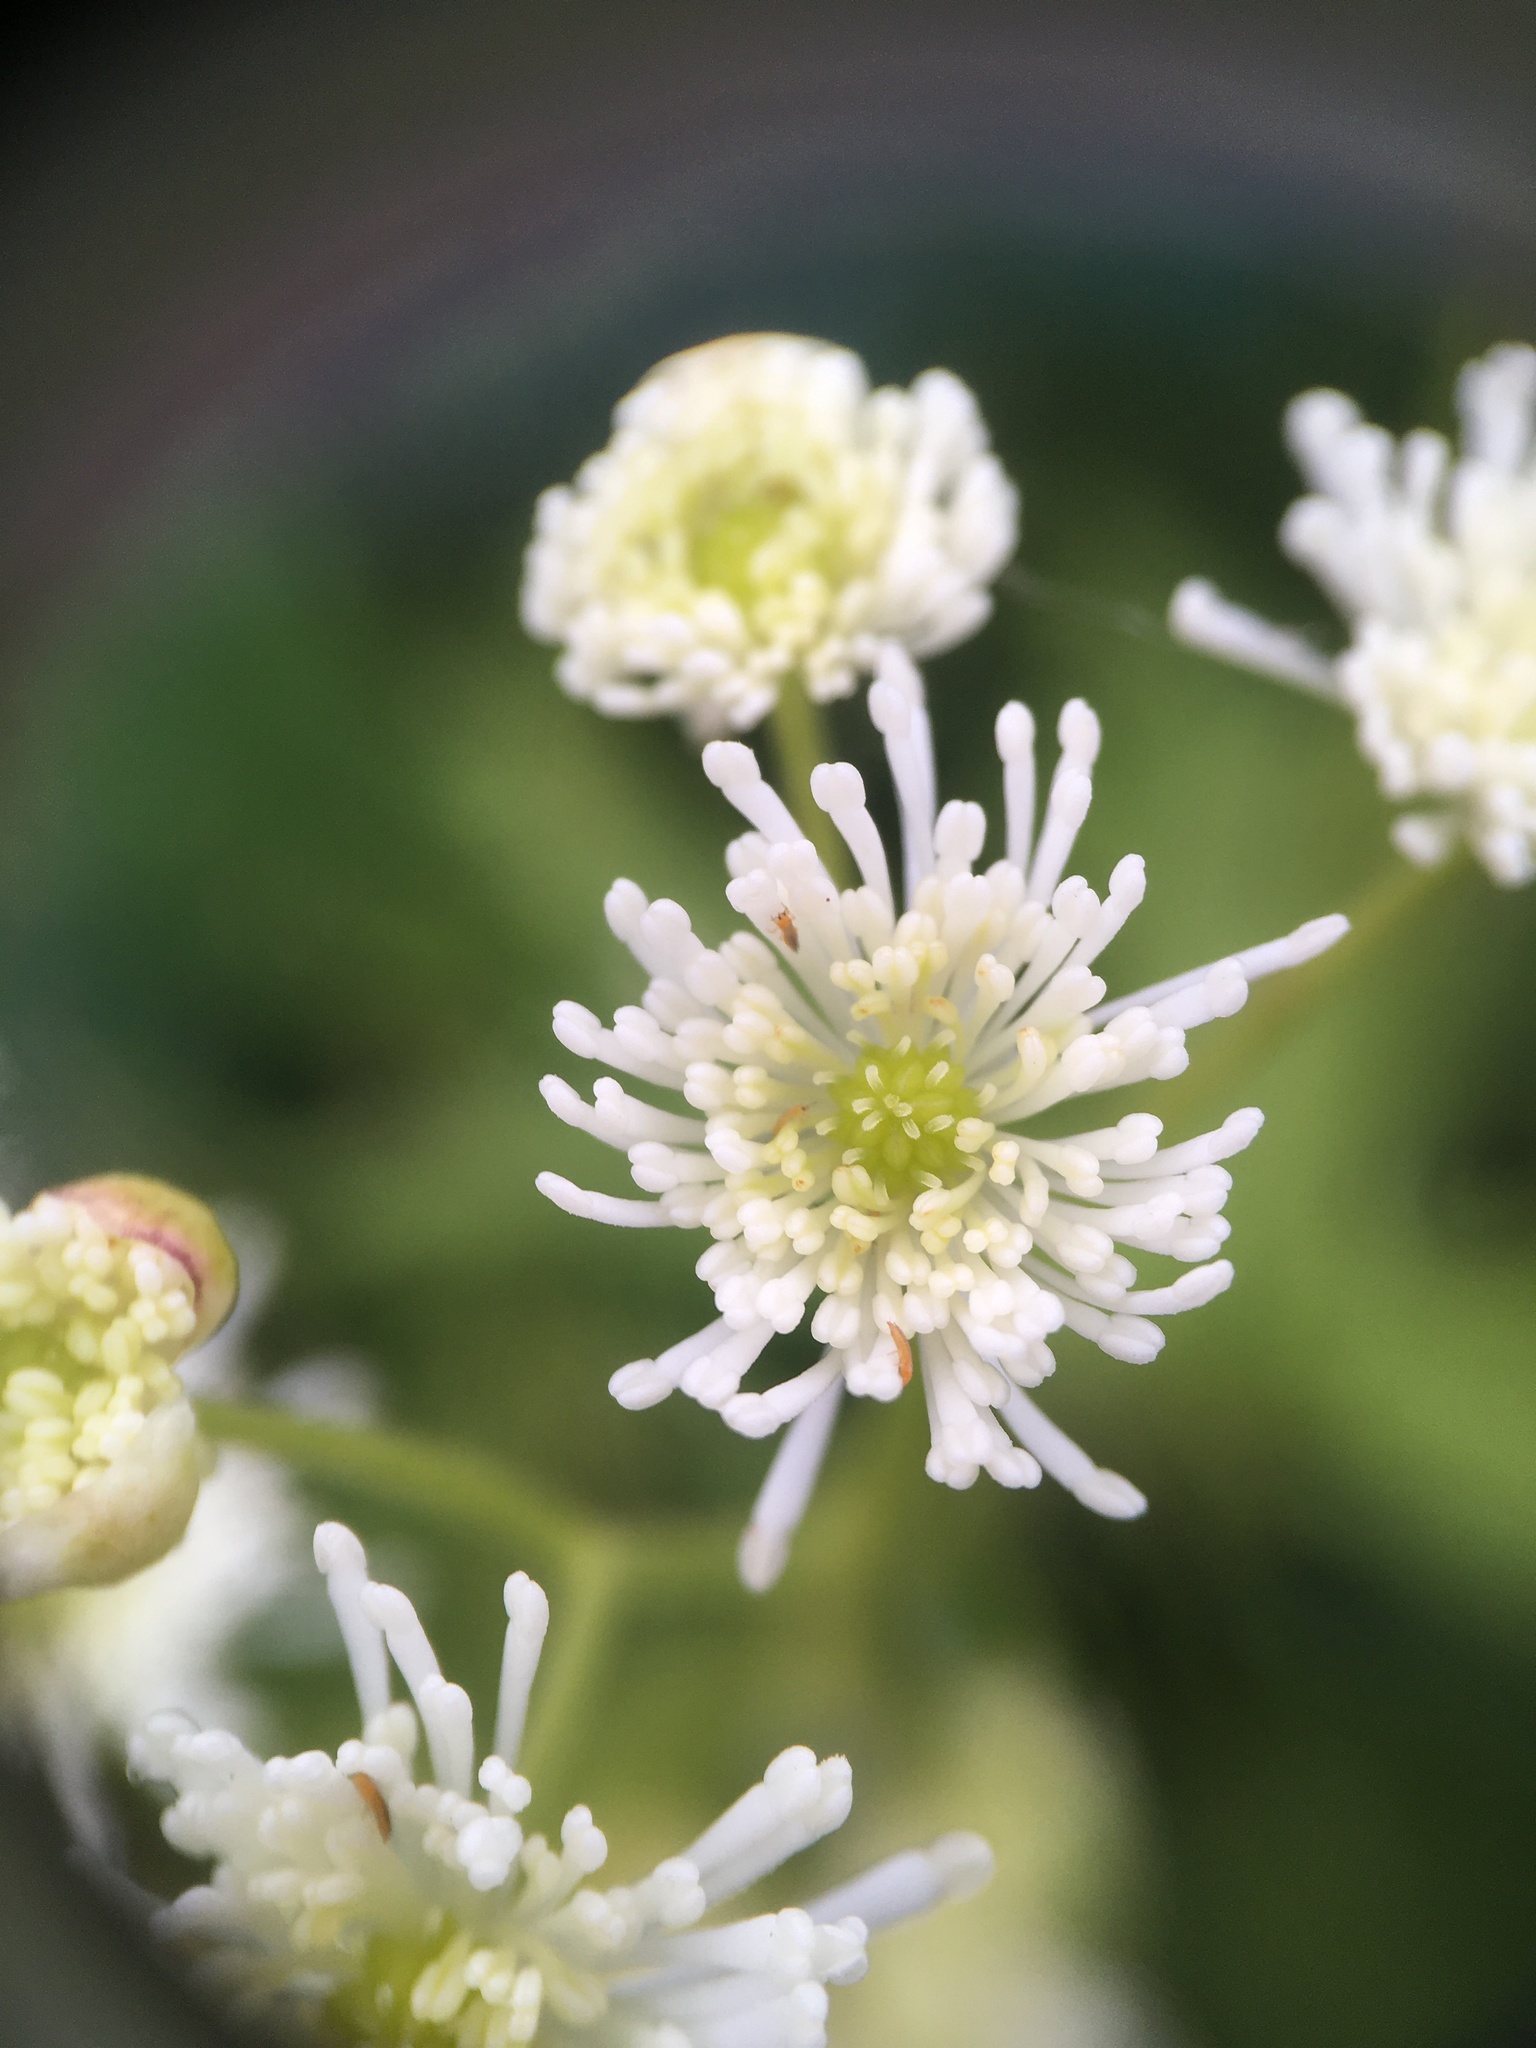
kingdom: Plantae
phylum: Tracheophyta
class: Magnoliopsida
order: Ranunculales
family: Ranunculaceae
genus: Trautvetteria
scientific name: Trautvetteria carolinensis
